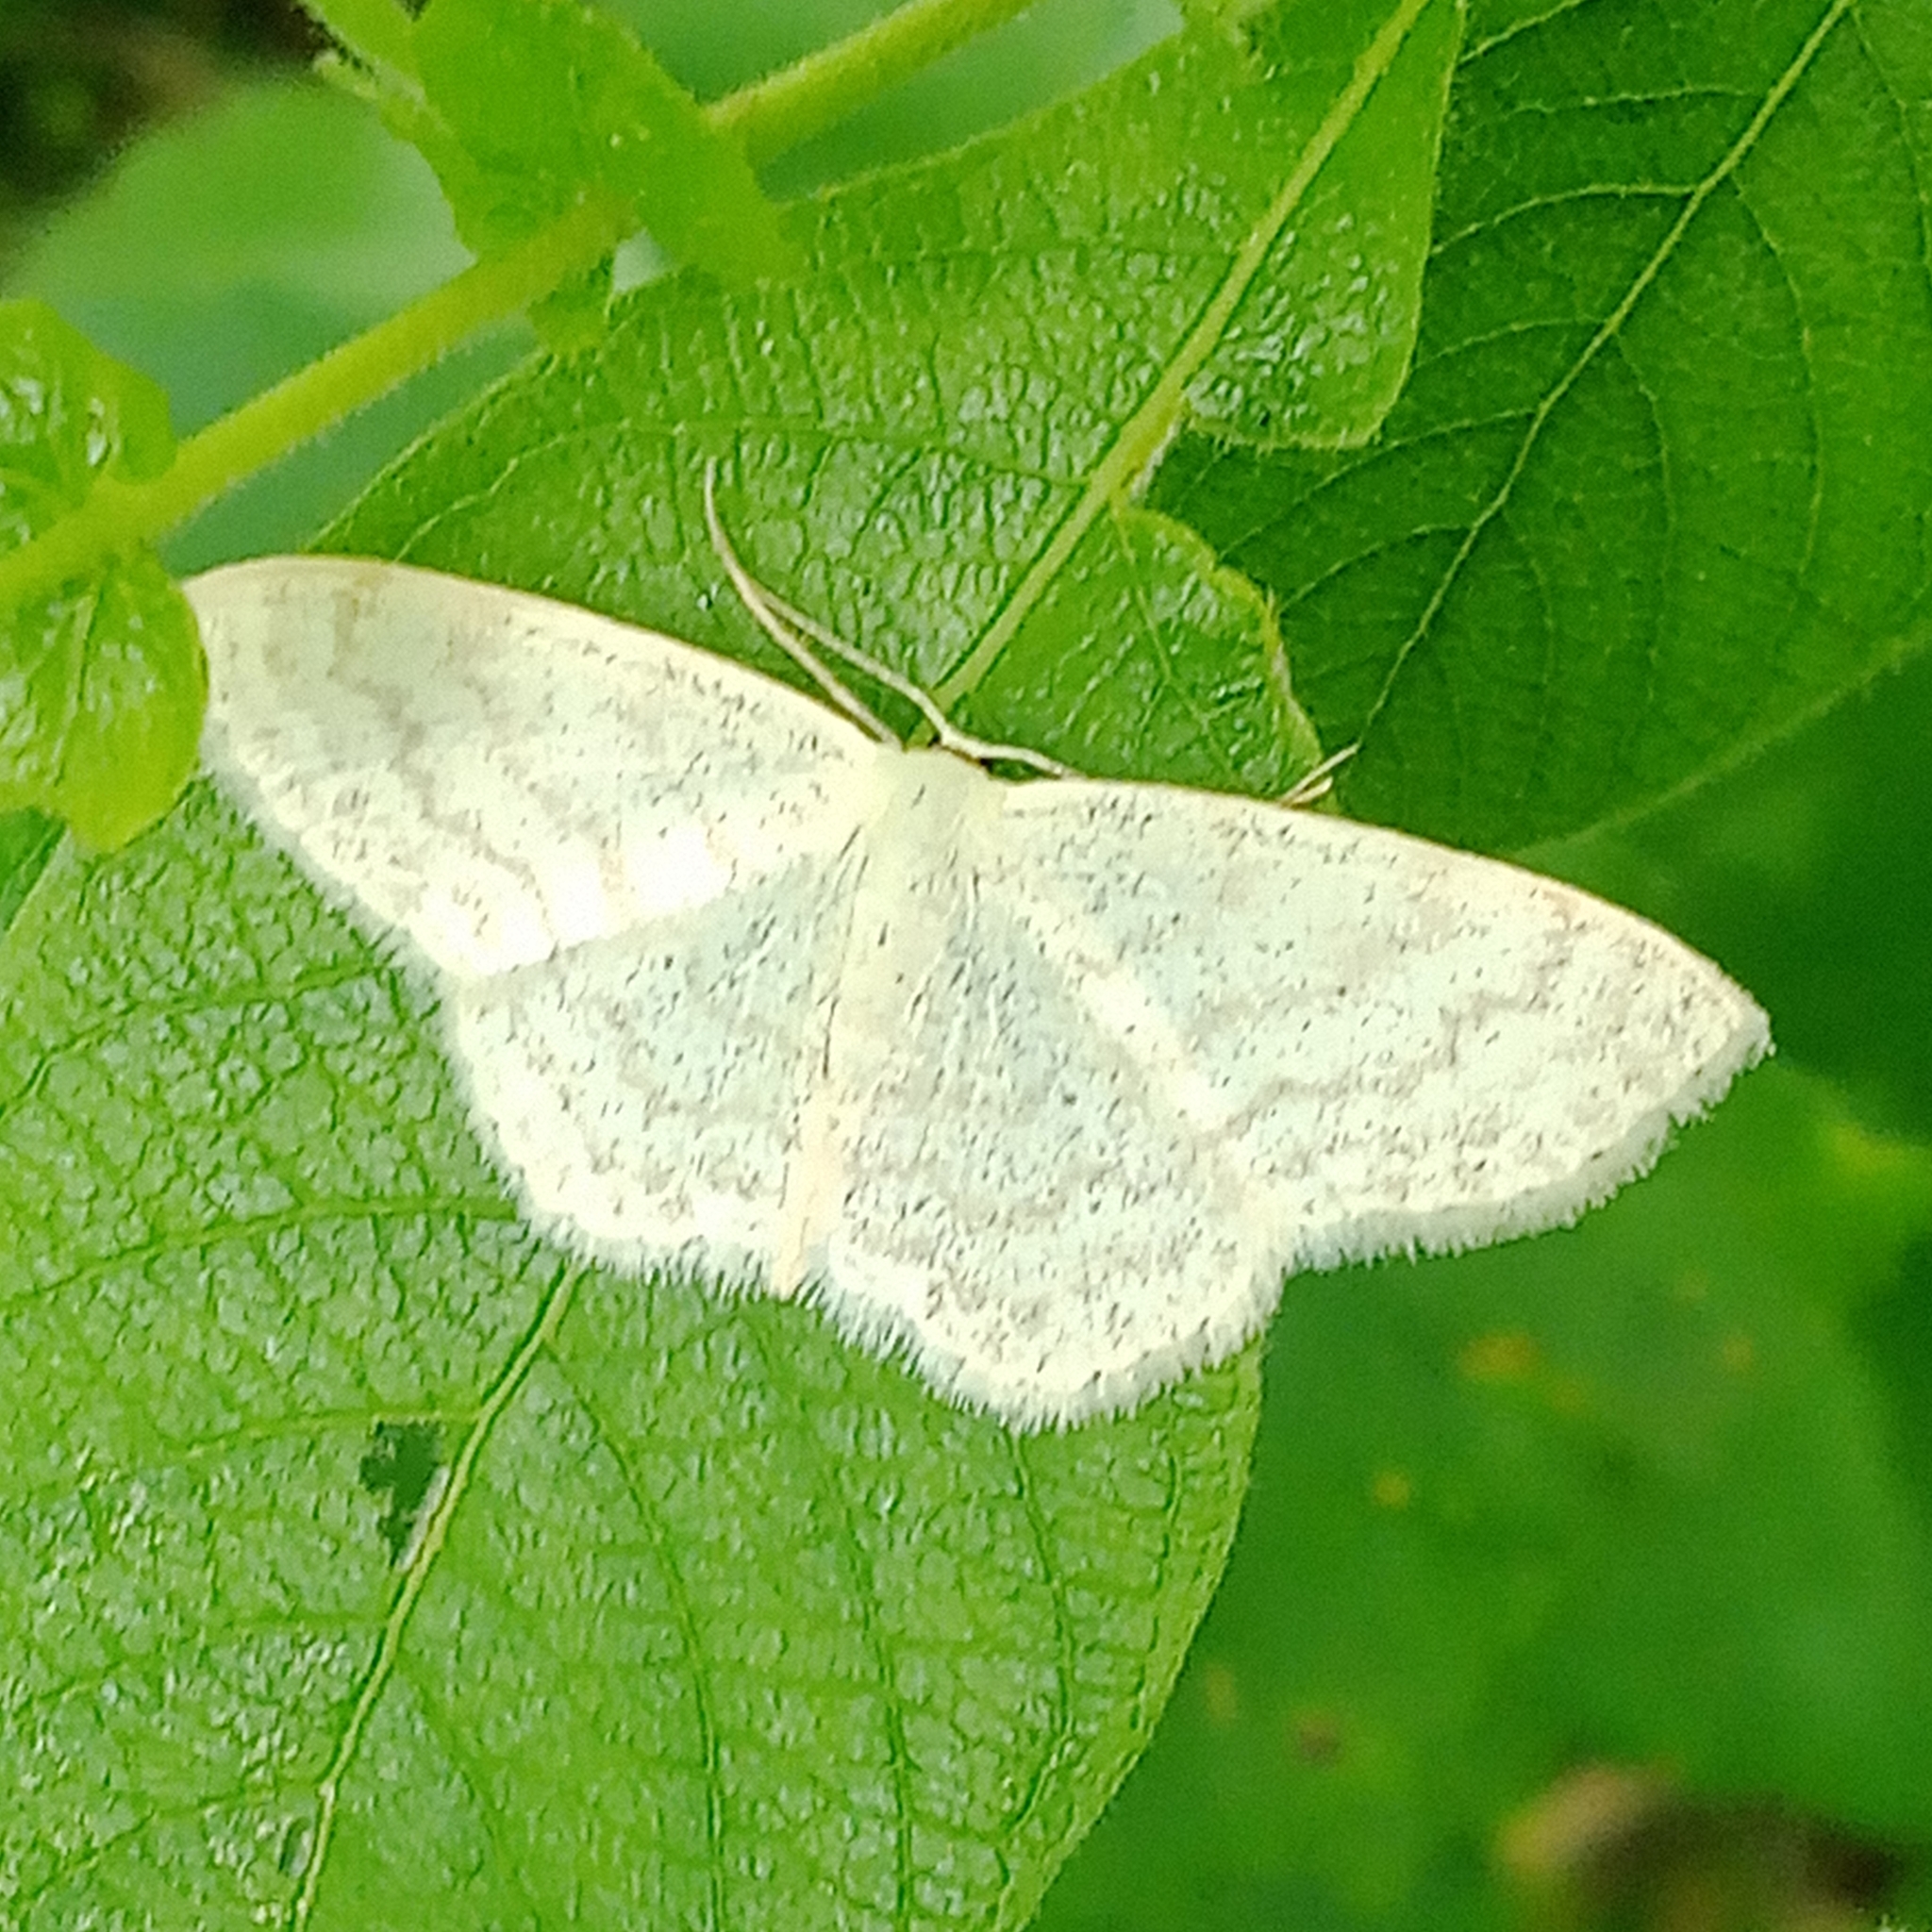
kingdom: Animalia
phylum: Arthropoda
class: Insecta
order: Lepidoptera
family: Geometridae
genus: Scopula
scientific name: Scopula floslactata
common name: Cream wave
